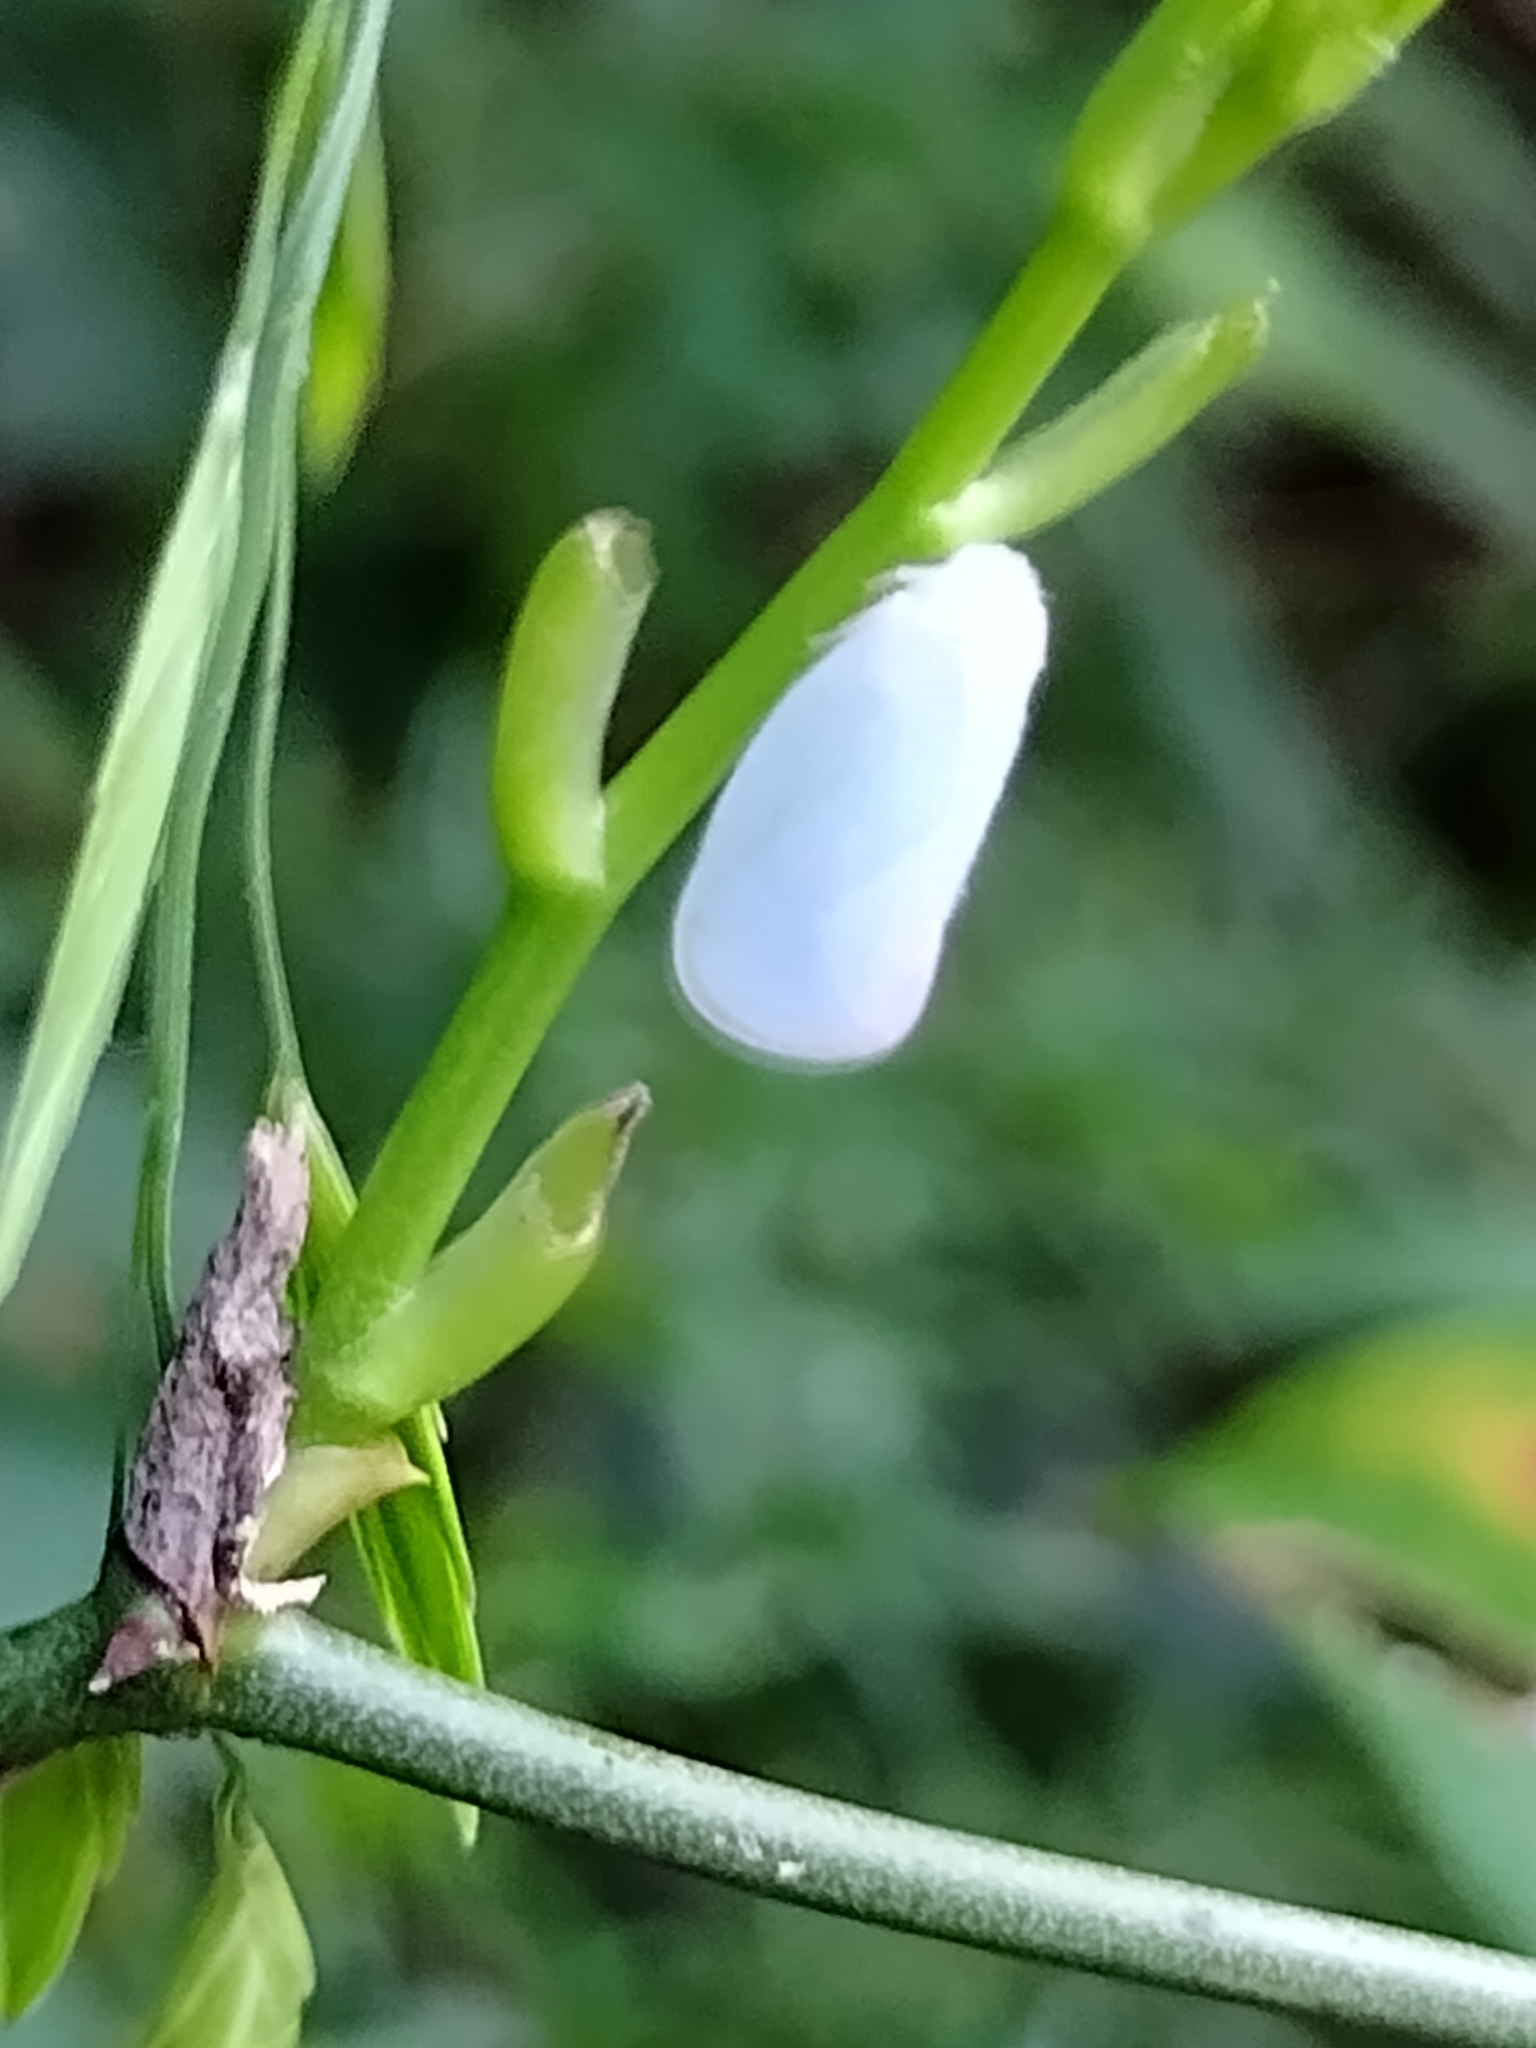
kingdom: Animalia
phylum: Arthropoda
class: Insecta
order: Hemiptera
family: Flatidae
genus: Ormenoides
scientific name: Ormenoides venusta
